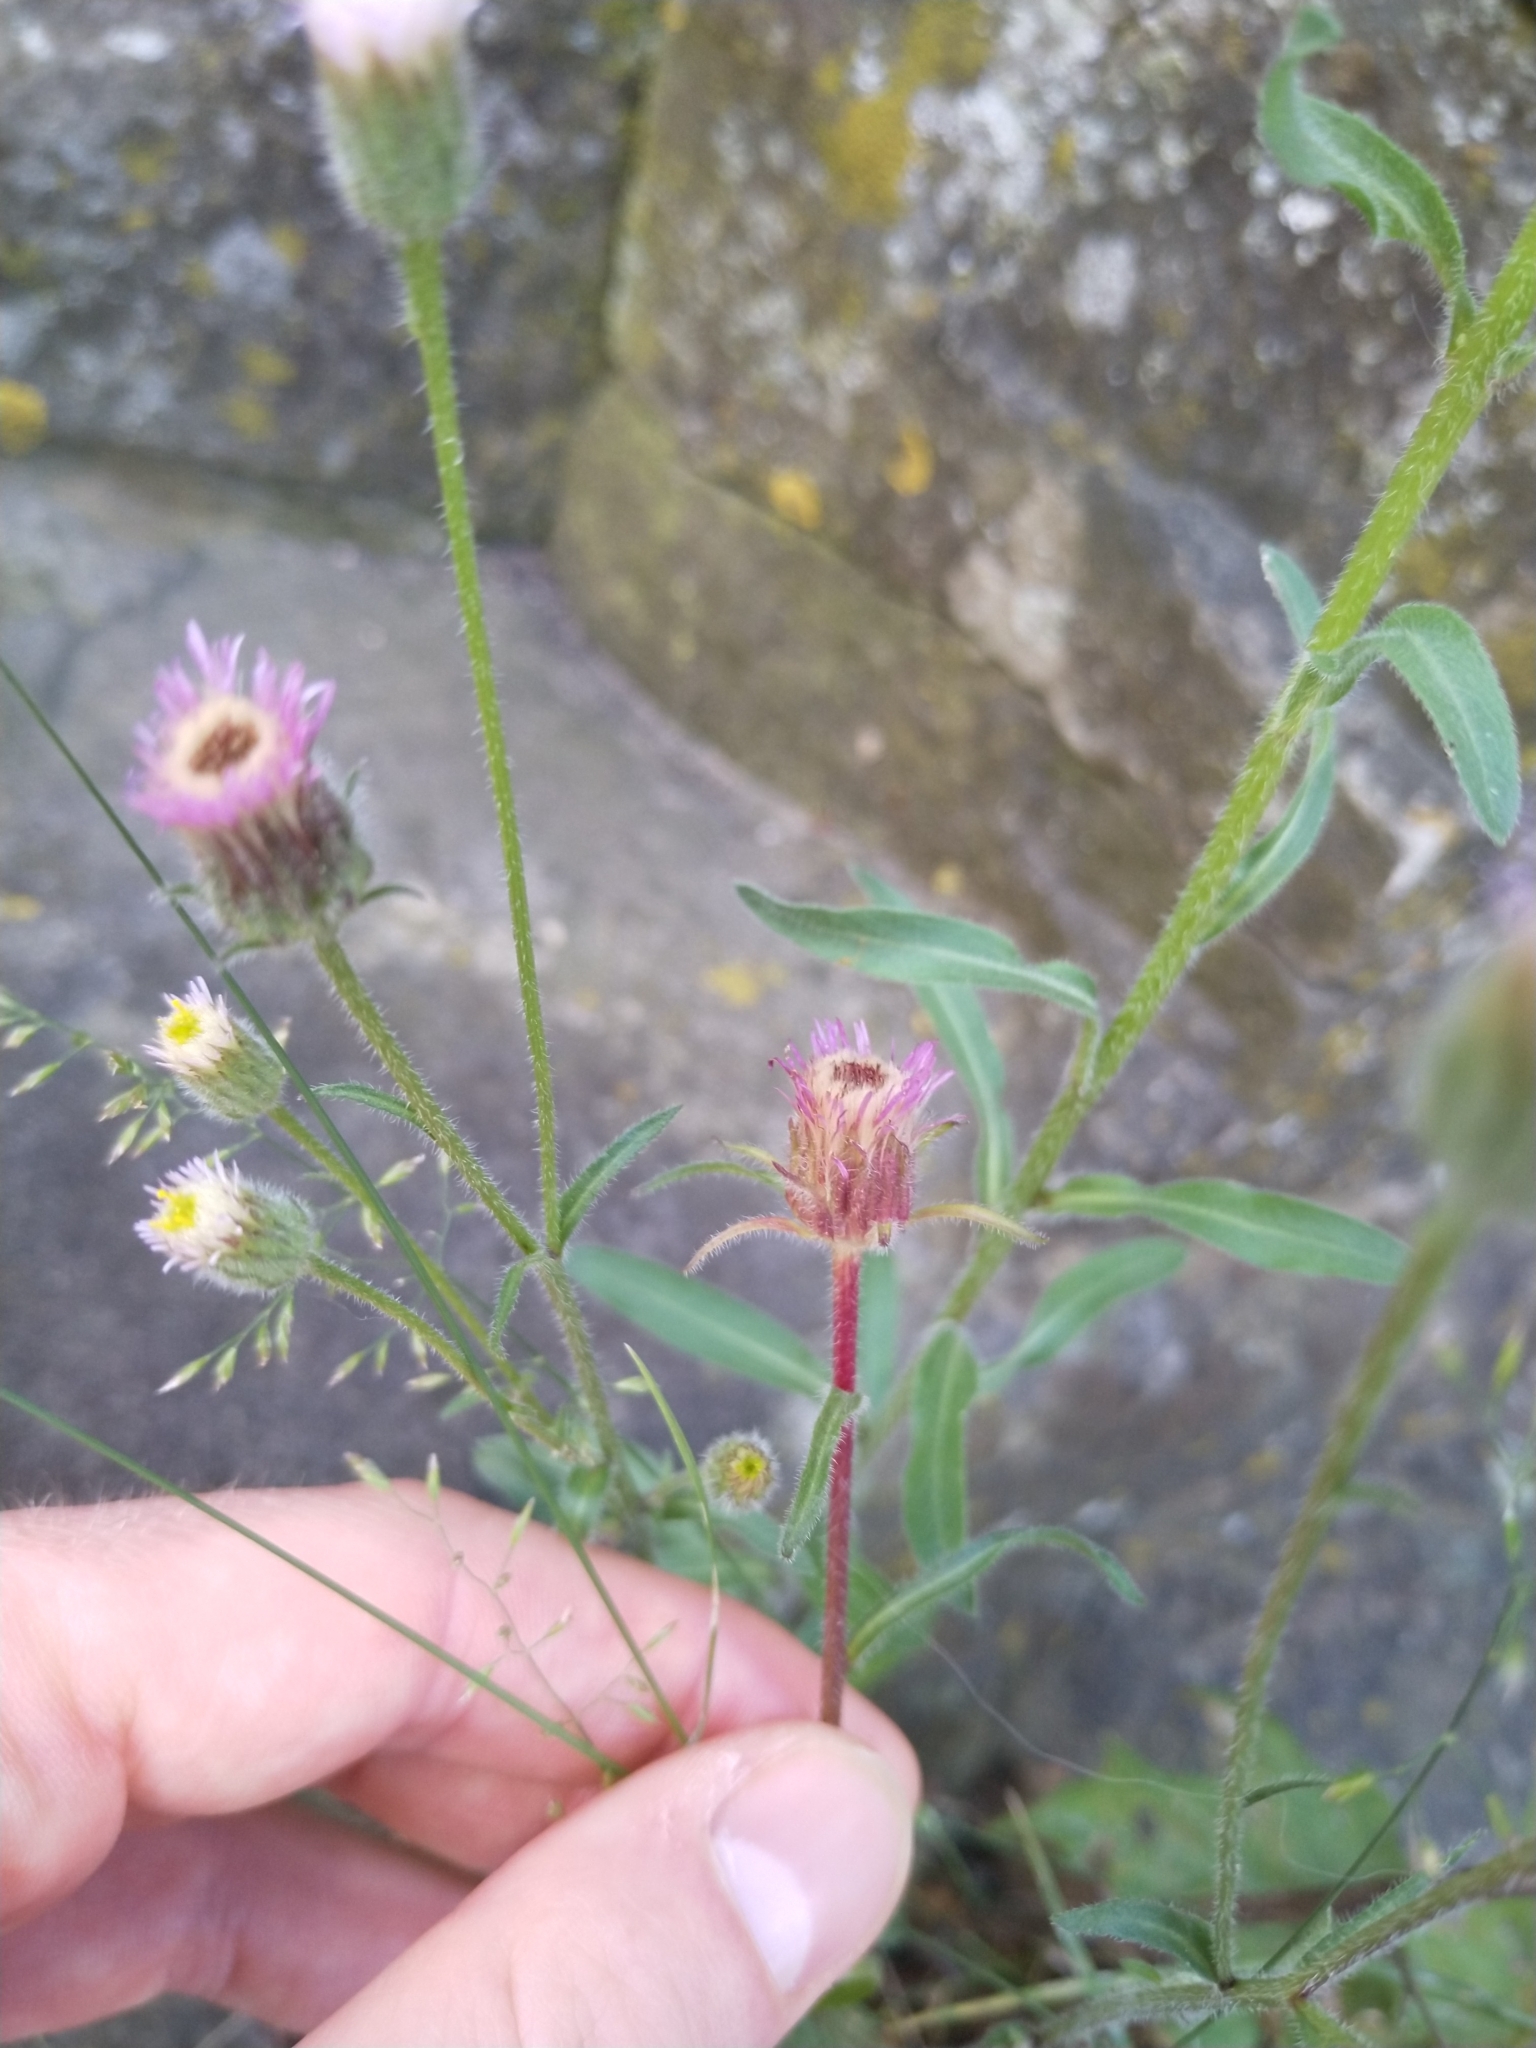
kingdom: Plantae
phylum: Tracheophyta
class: Magnoliopsida
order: Asterales
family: Asteraceae
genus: Erigeron
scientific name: Erigeron acris
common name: Blue fleabane
